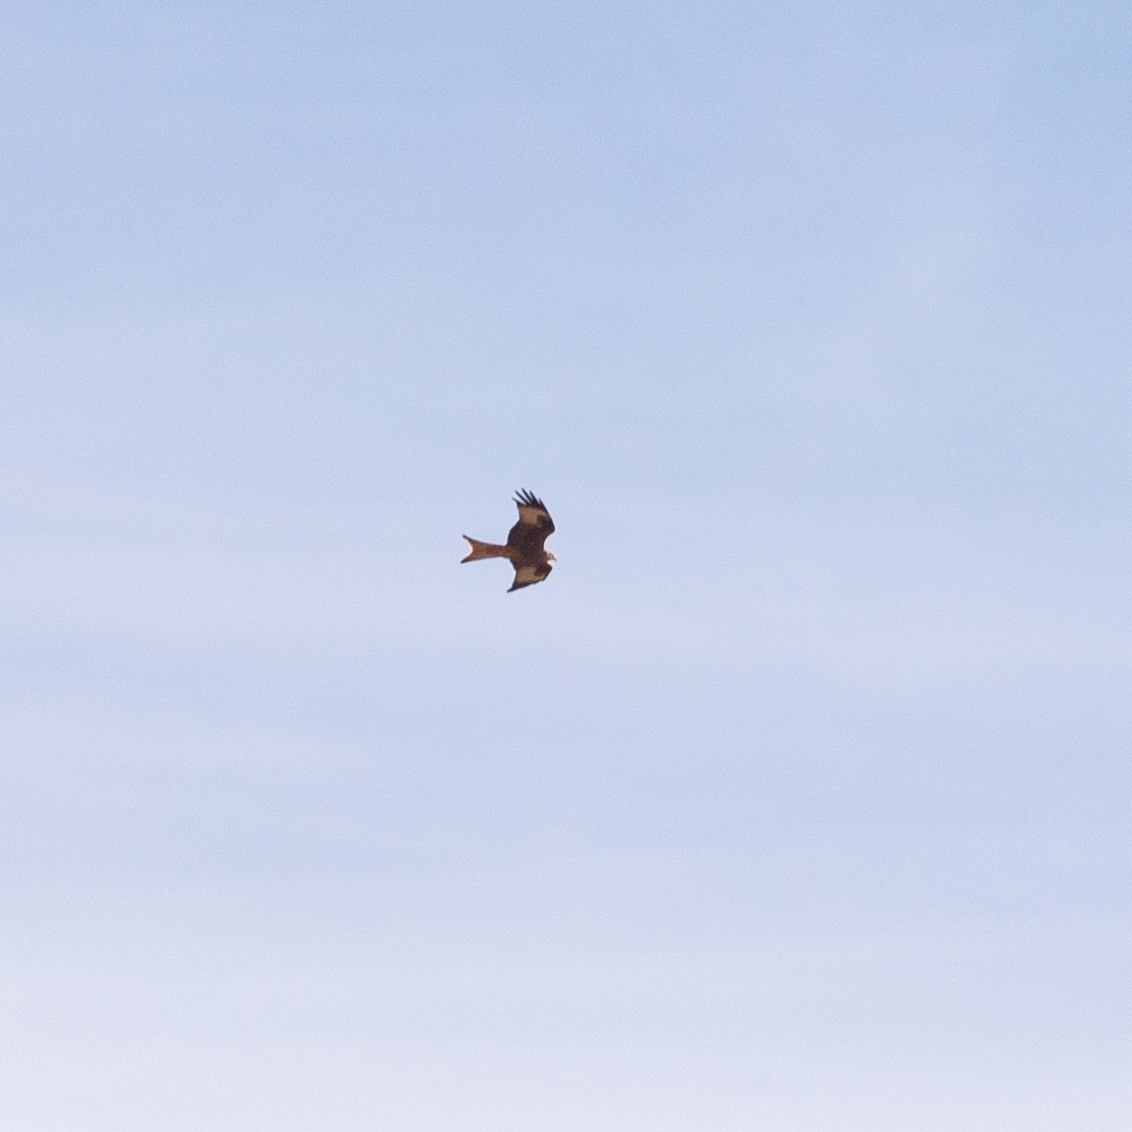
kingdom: Animalia
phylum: Chordata
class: Aves
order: Accipitriformes
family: Accipitridae
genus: Milvus
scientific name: Milvus milvus
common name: Red kite
